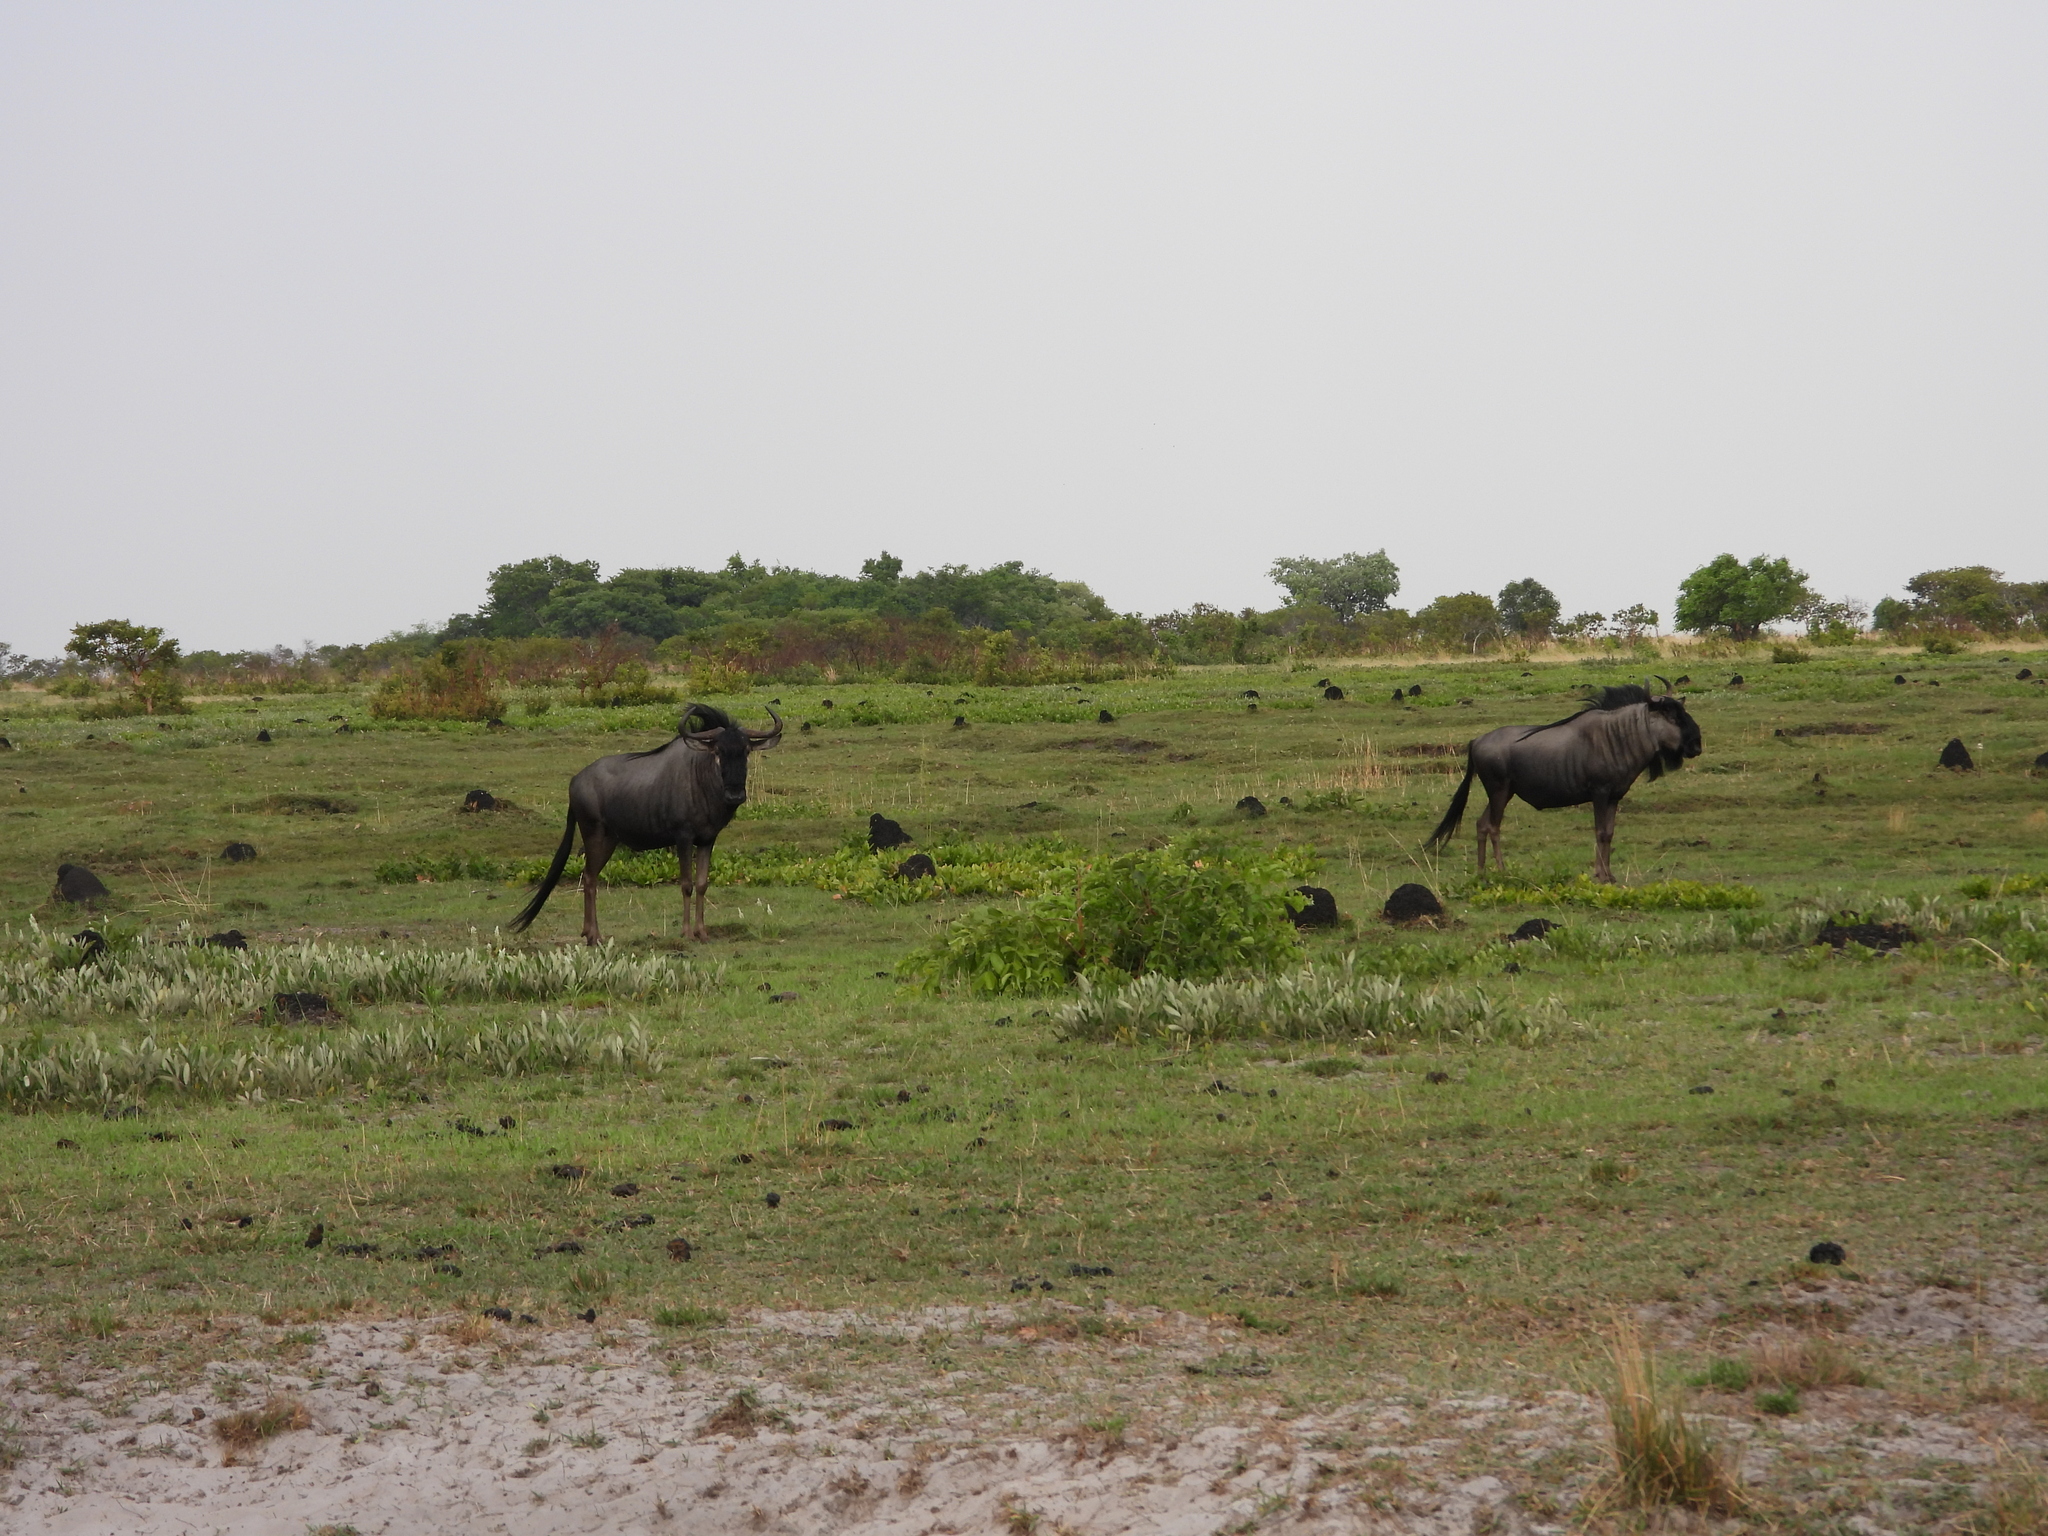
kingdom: Animalia
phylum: Chordata
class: Mammalia
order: Artiodactyla
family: Bovidae
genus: Connochaetes
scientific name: Connochaetes taurinus
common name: Blue wildebeest
